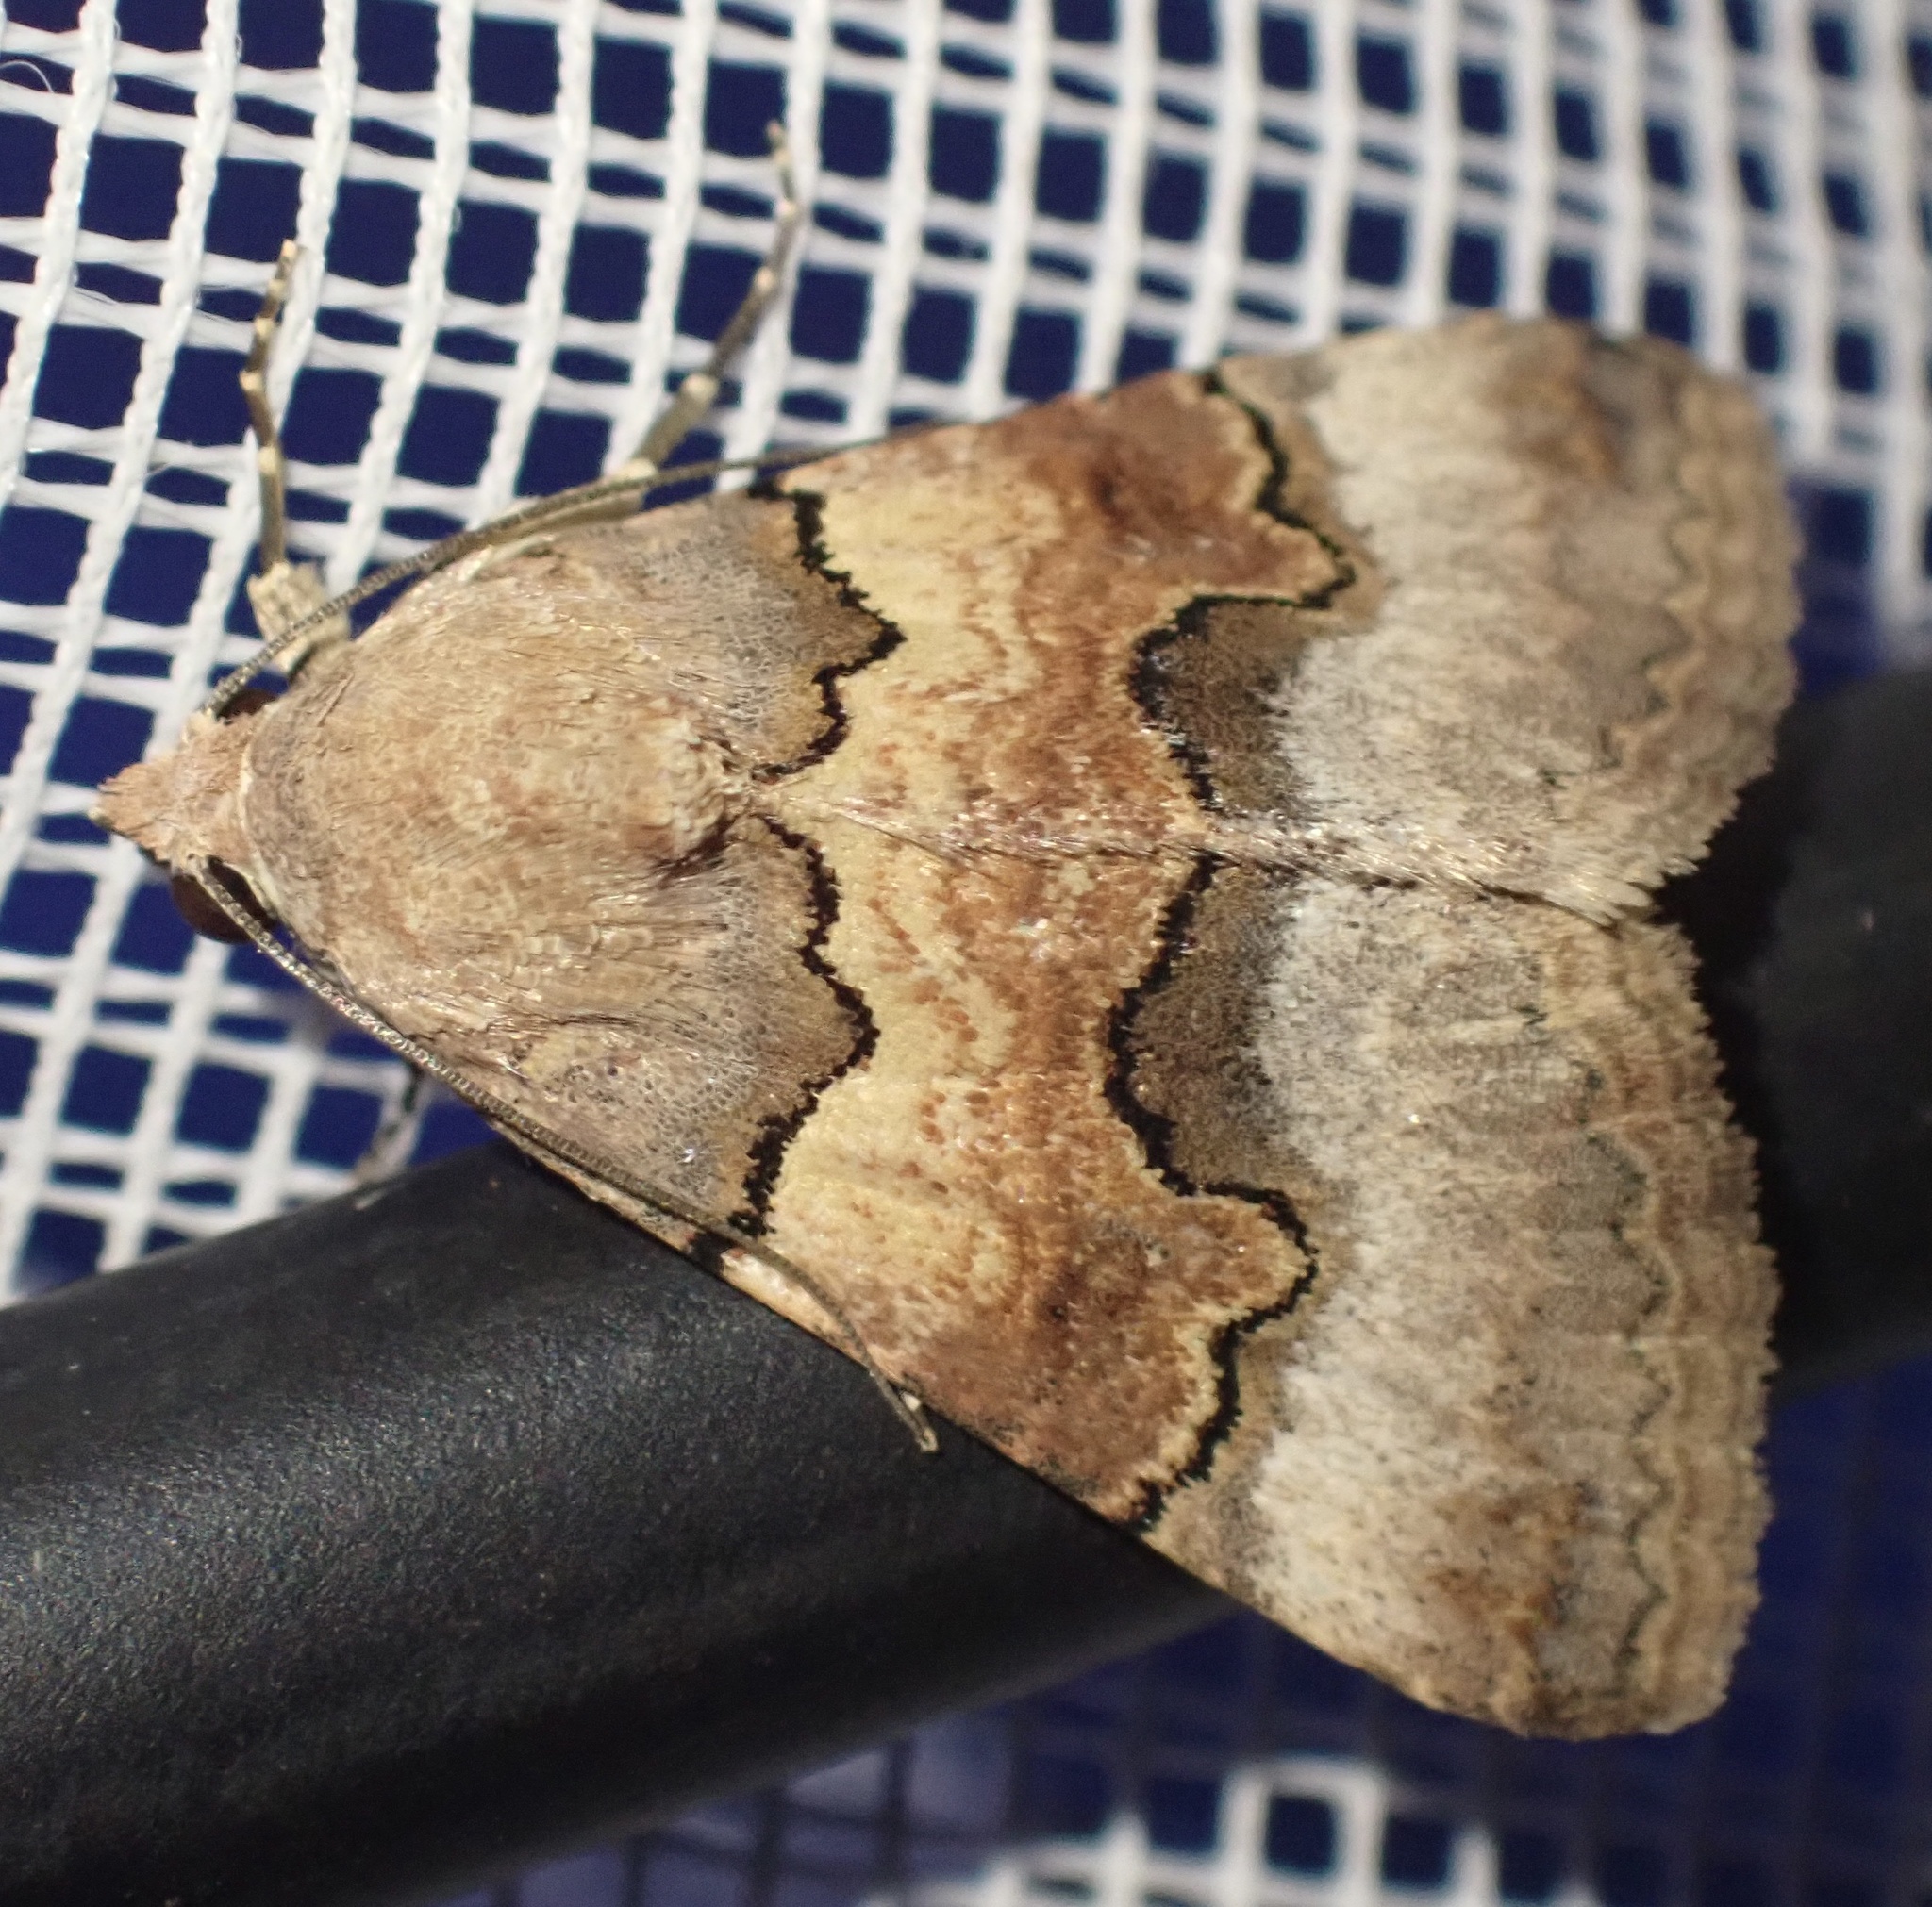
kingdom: Animalia
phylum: Arthropoda
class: Insecta
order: Lepidoptera
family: Erebidae
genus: Tytroca
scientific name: Tytroca dispar
